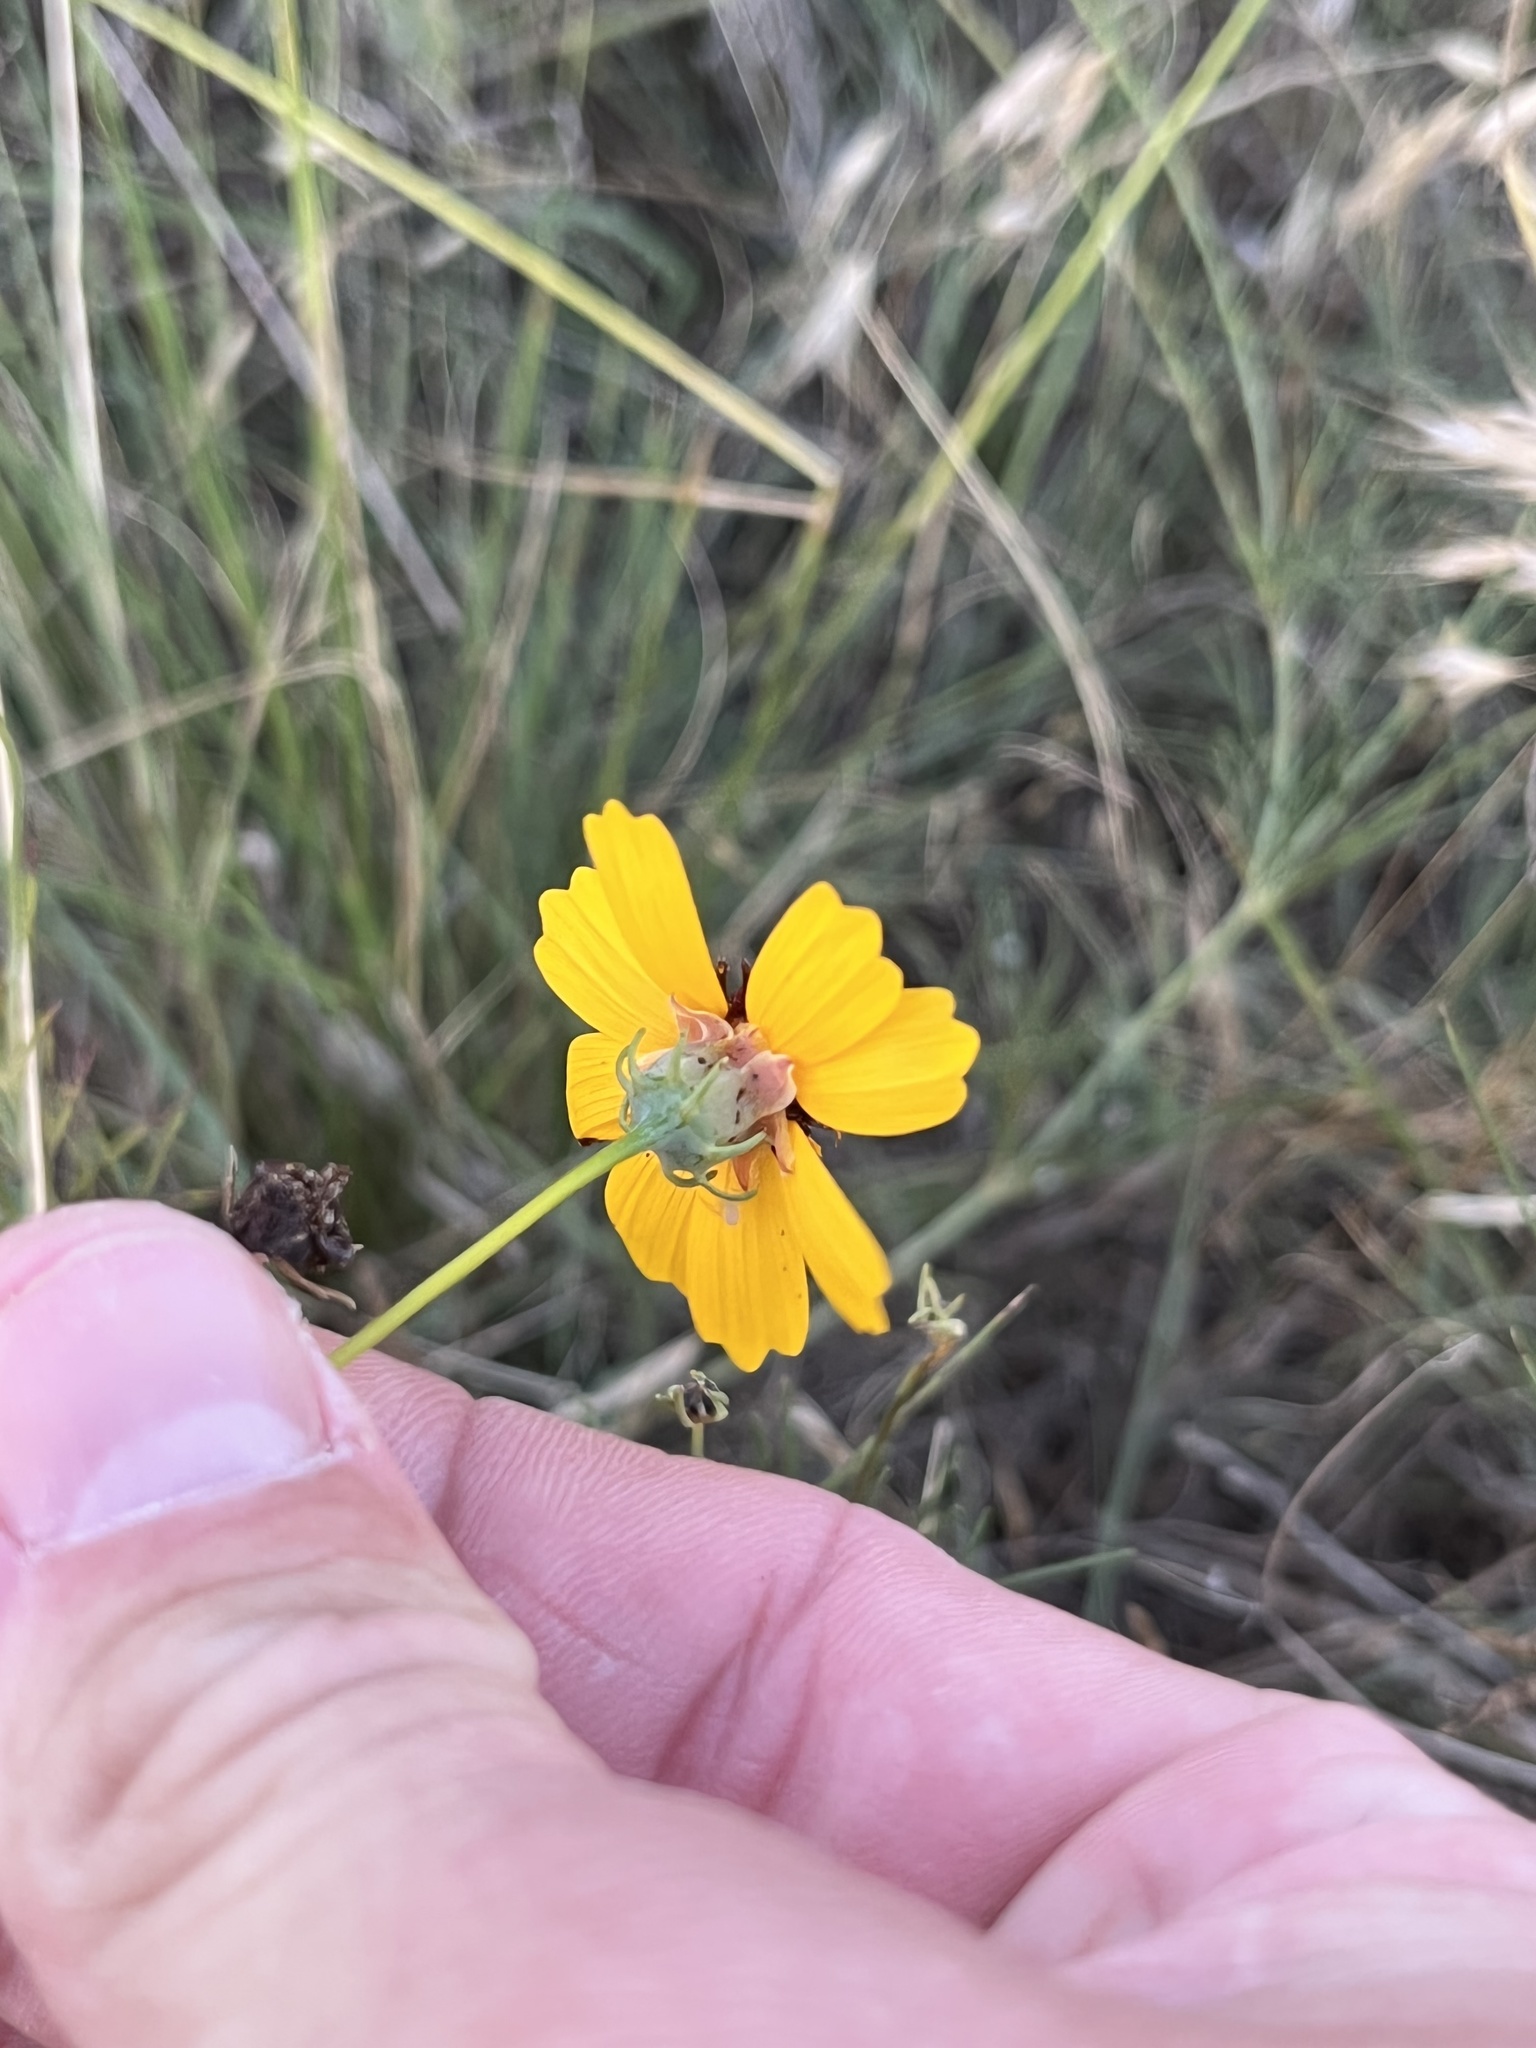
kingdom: Plantae
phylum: Tracheophyta
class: Magnoliopsida
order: Asterales
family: Asteraceae
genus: Thelesperma
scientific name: Thelesperma filifolium
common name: Stiff greenthread
